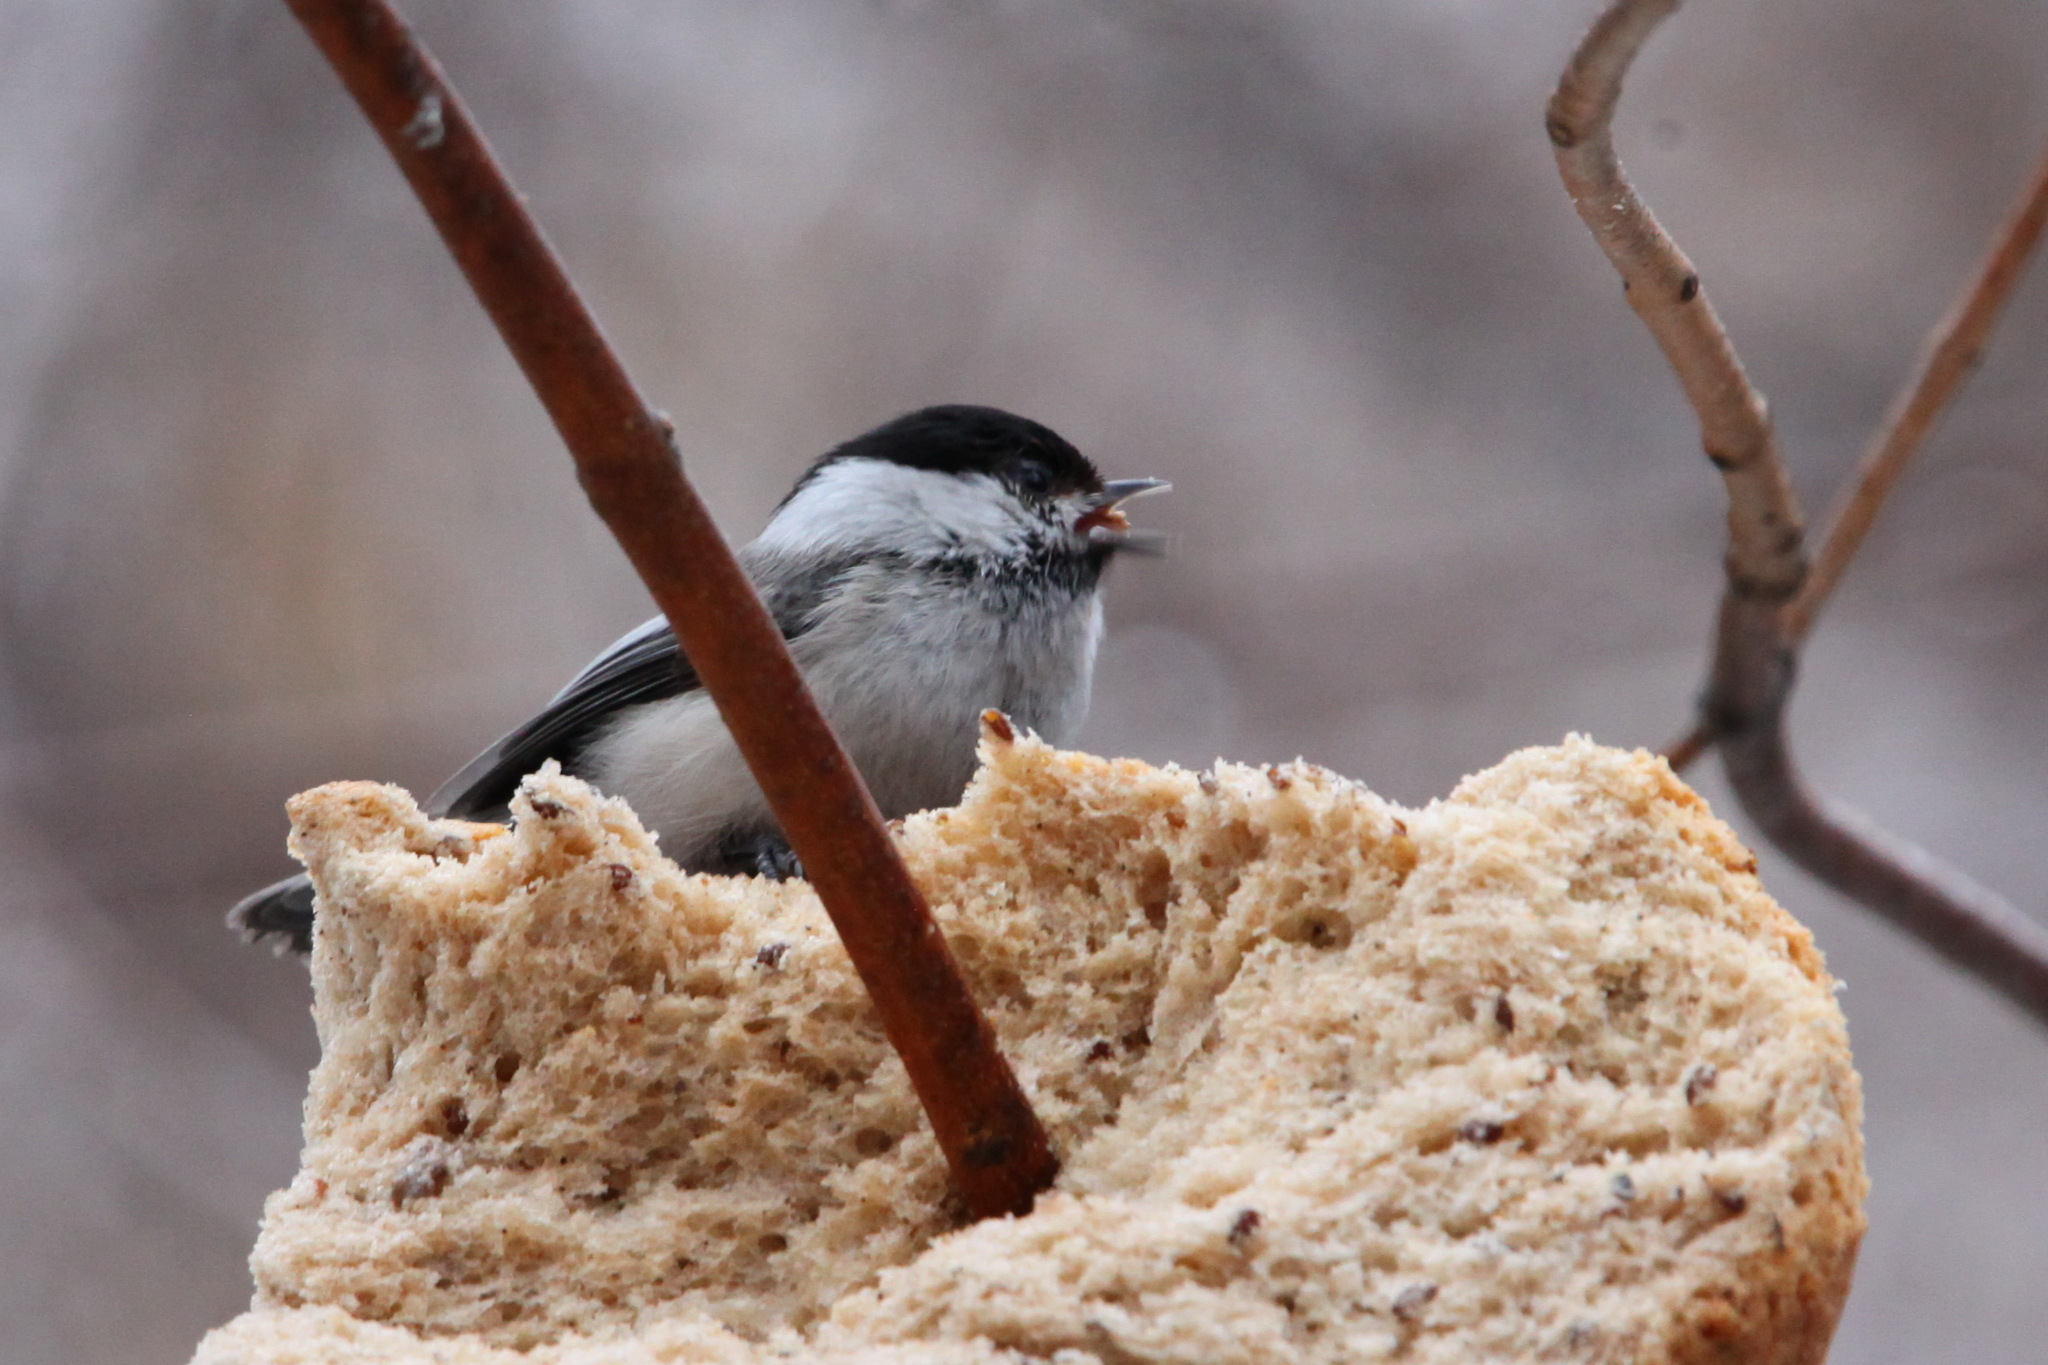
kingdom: Animalia
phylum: Chordata
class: Aves
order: Passeriformes
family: Paridae
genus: Poecile
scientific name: Poecile montanus
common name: Willow tit
